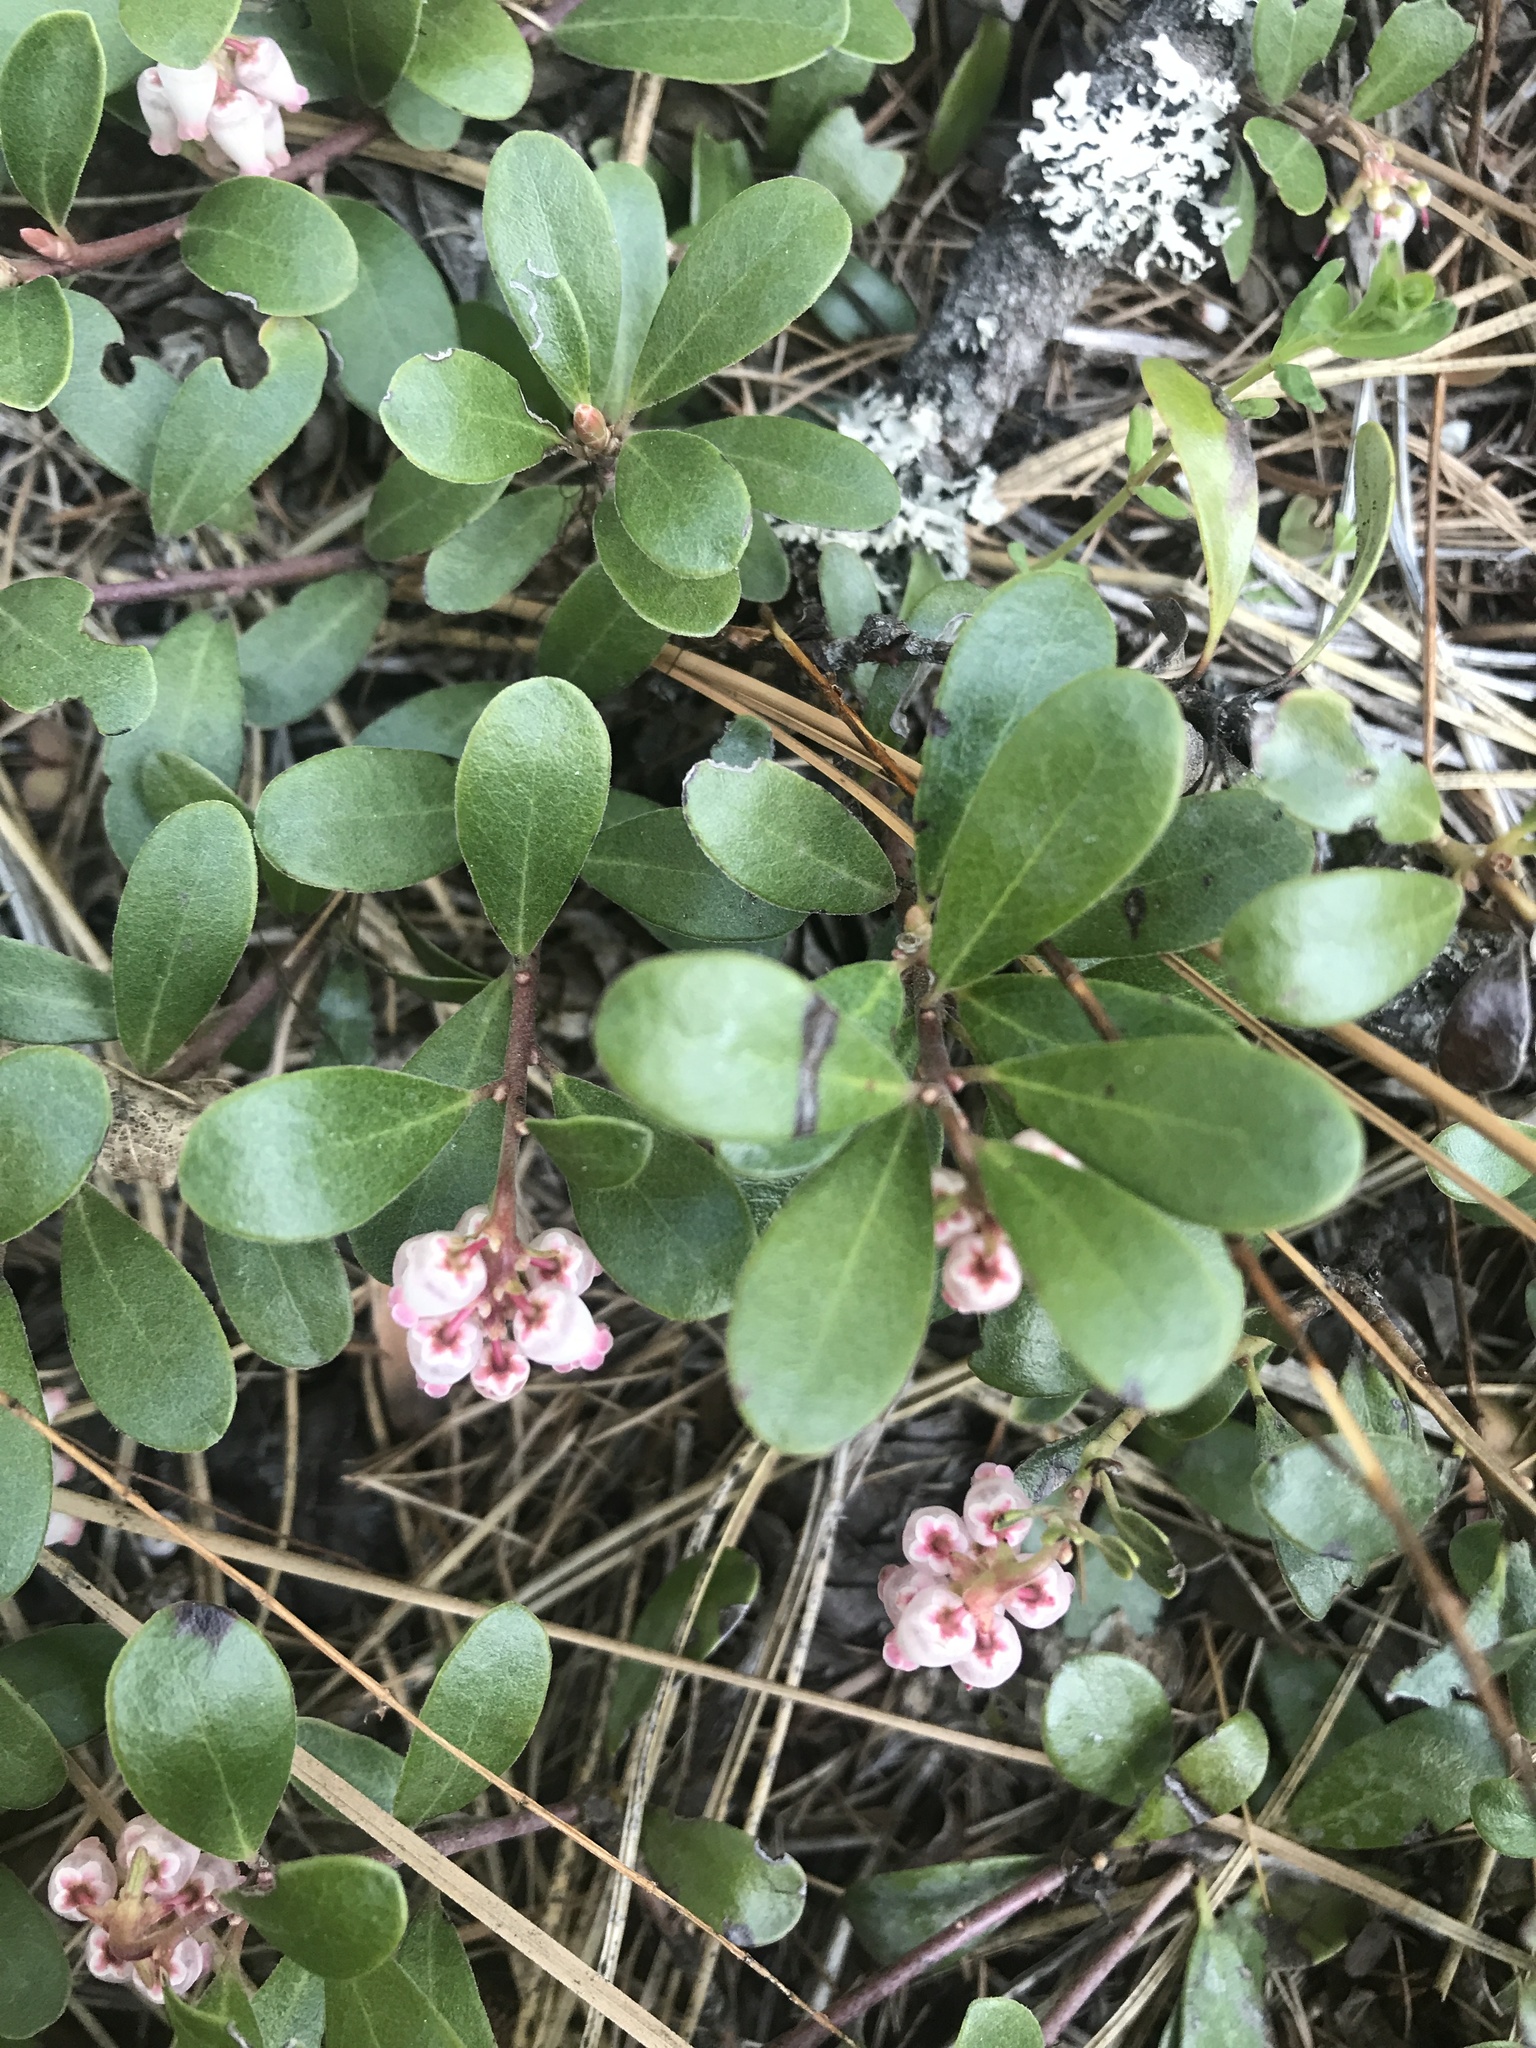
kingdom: Plantae
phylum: Tracheophyta
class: Magnoliopsida
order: Ericales
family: Ericaceae
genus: Arctostaphylos
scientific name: Arctostaphylos uva-ursi
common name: Bearberry
